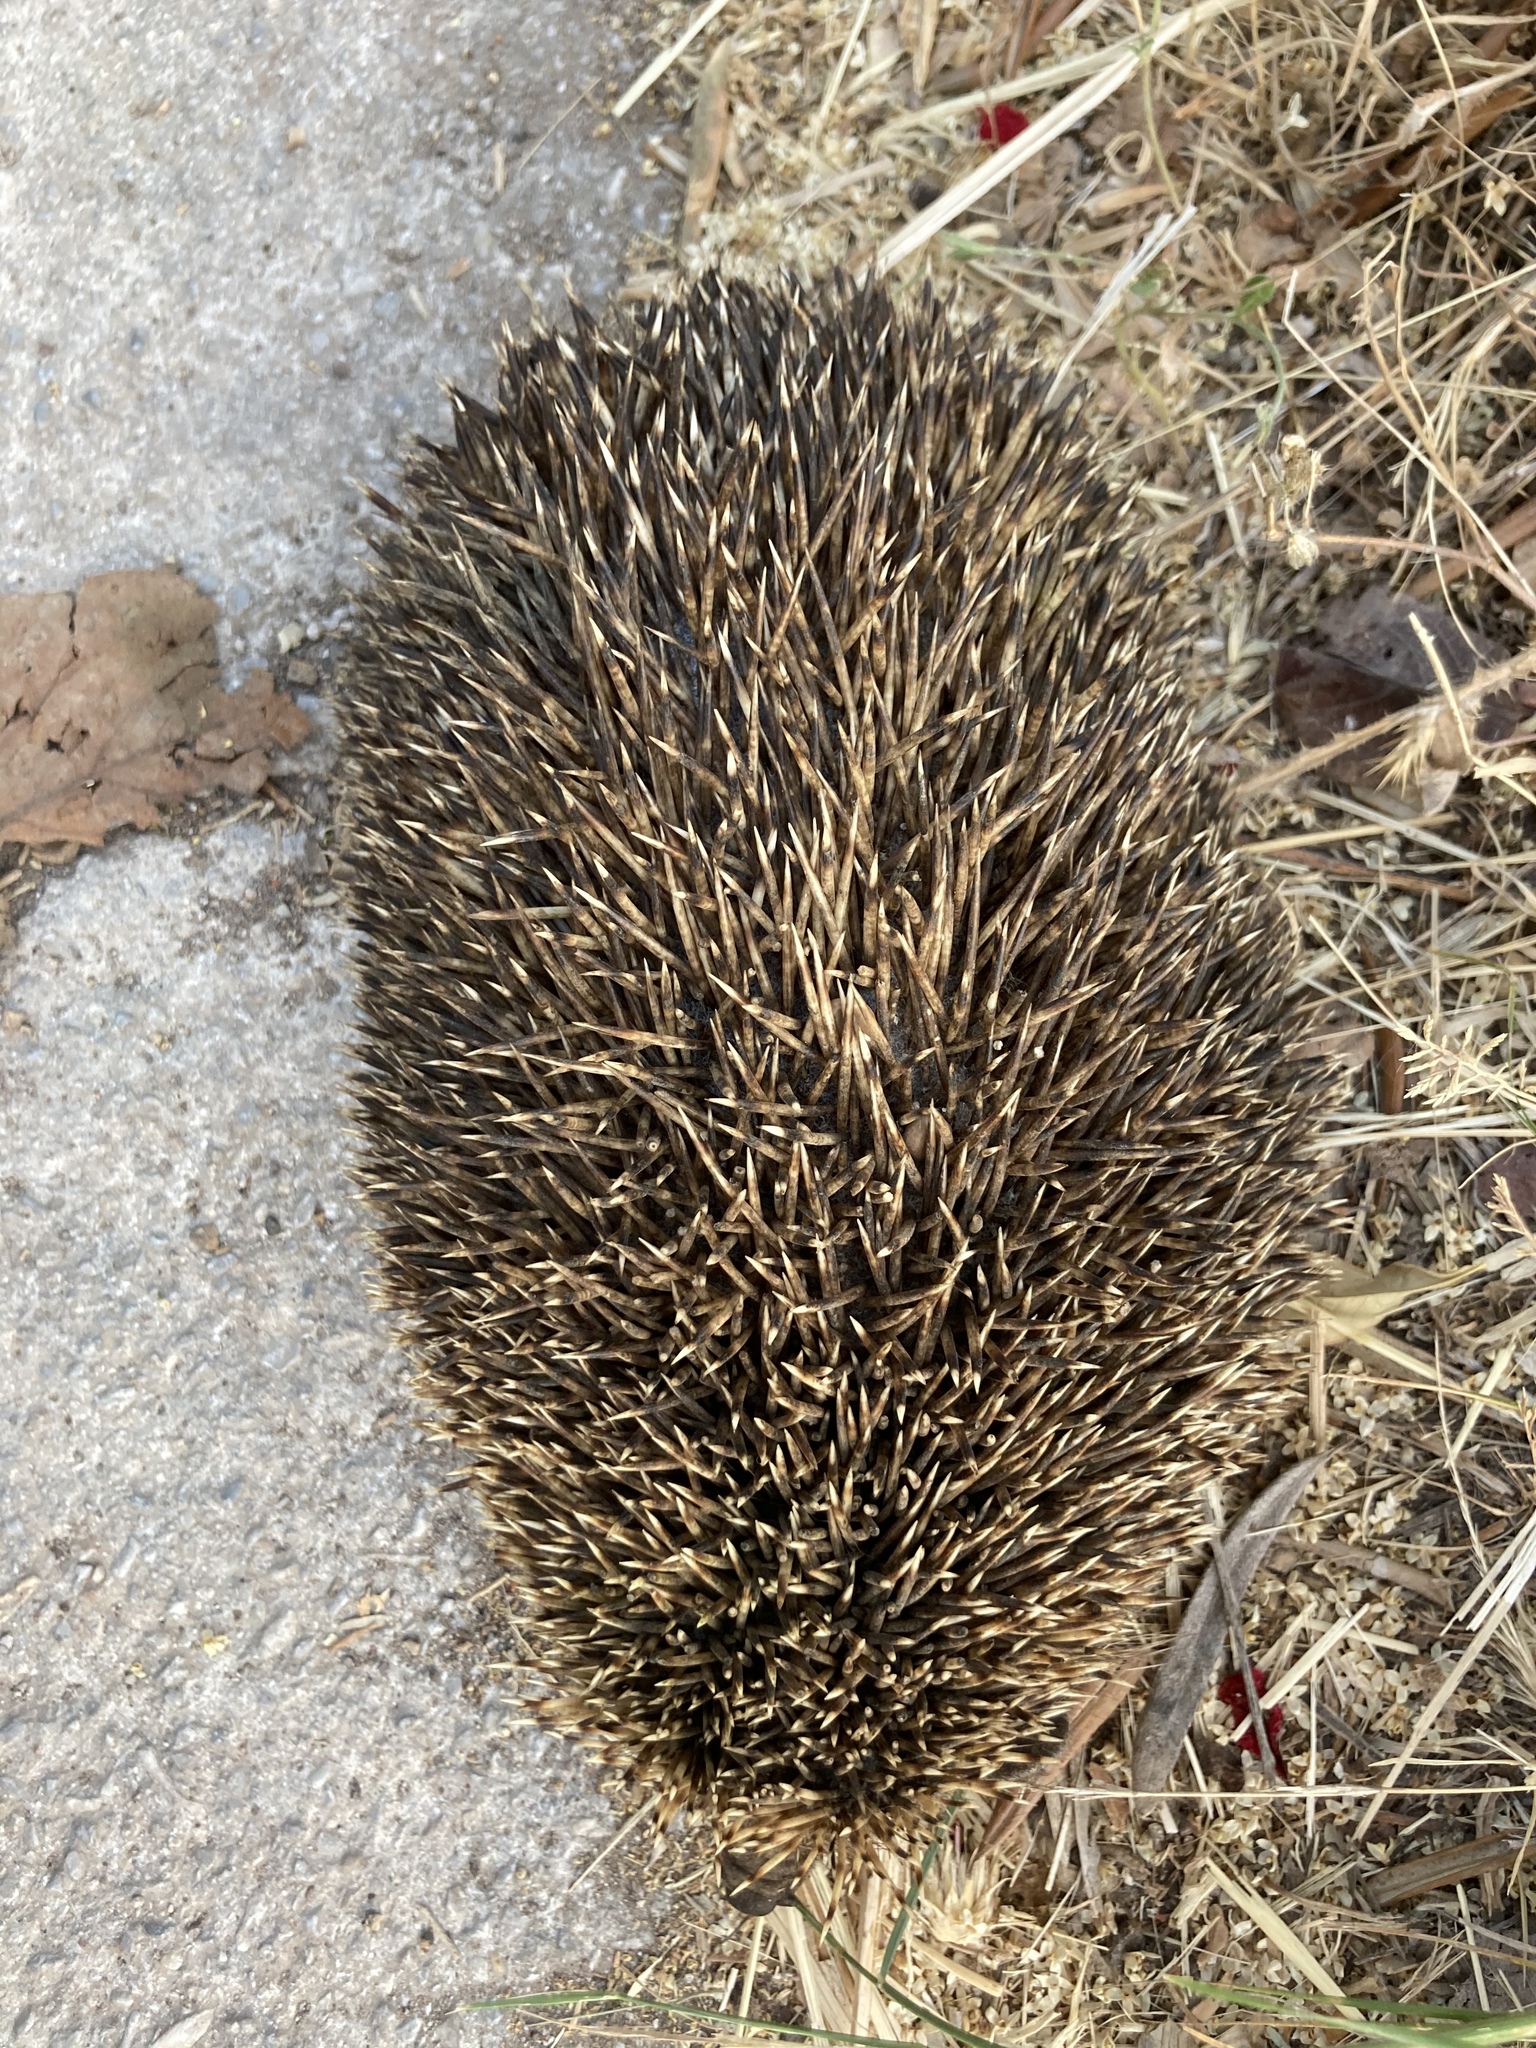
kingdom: Animalia
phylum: Chordata
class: Mammalia
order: Erinaceomorpha
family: Erinaceidae
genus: Erinaceus
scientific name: Erinaceus roumanicus
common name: Northern white-breasted hedgehog
